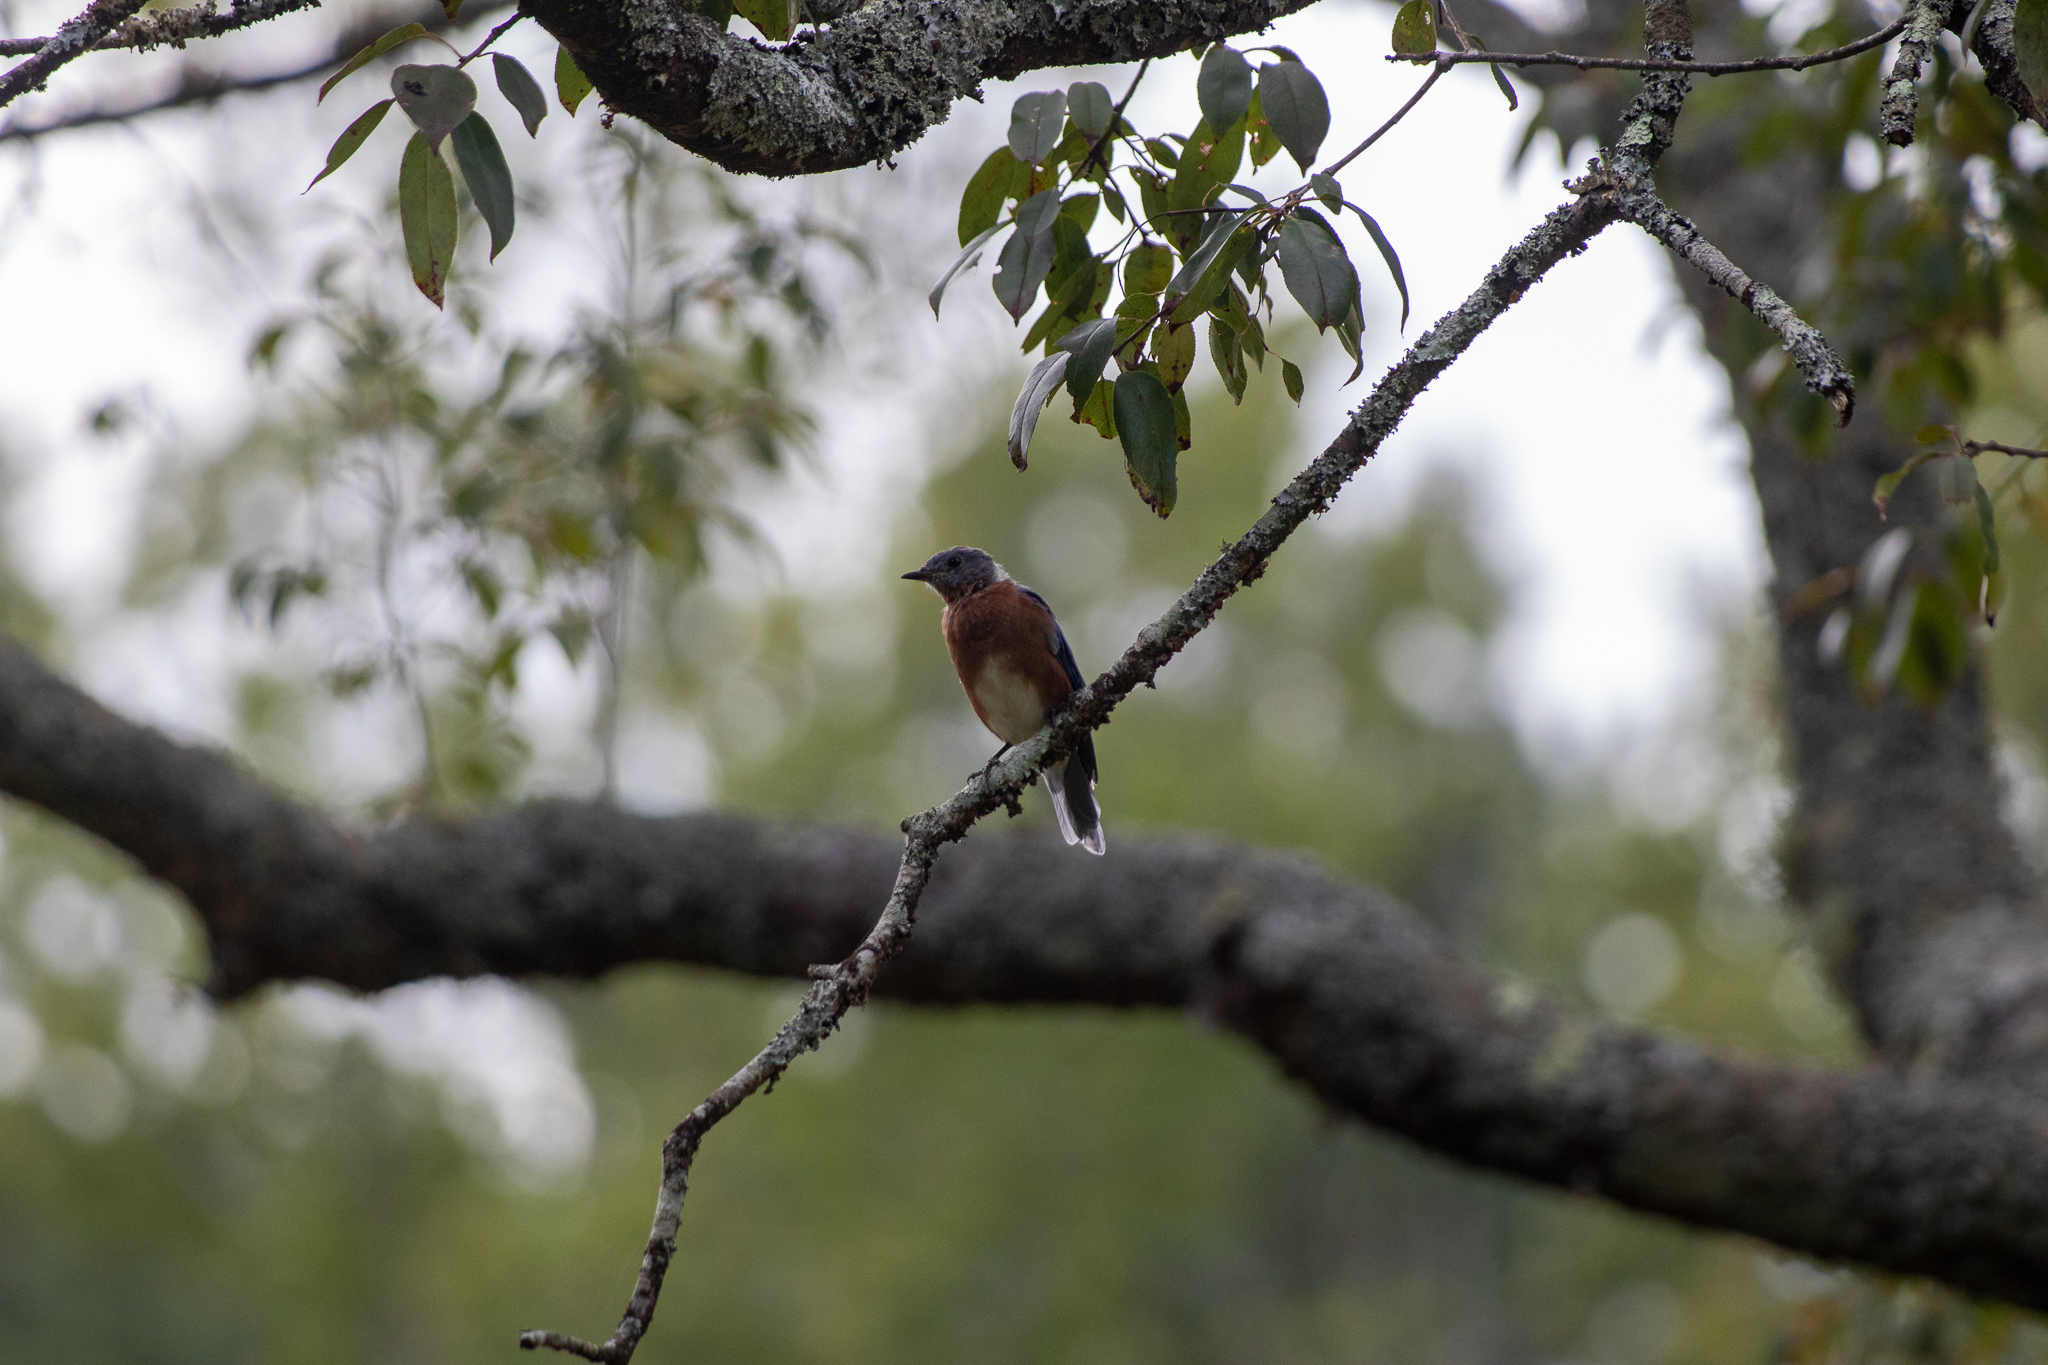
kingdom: Animalia
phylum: Chordata
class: Aves
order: Passeriformes
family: Turdidae
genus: Sialia
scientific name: Sialia sialis
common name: Eastern bluebird
